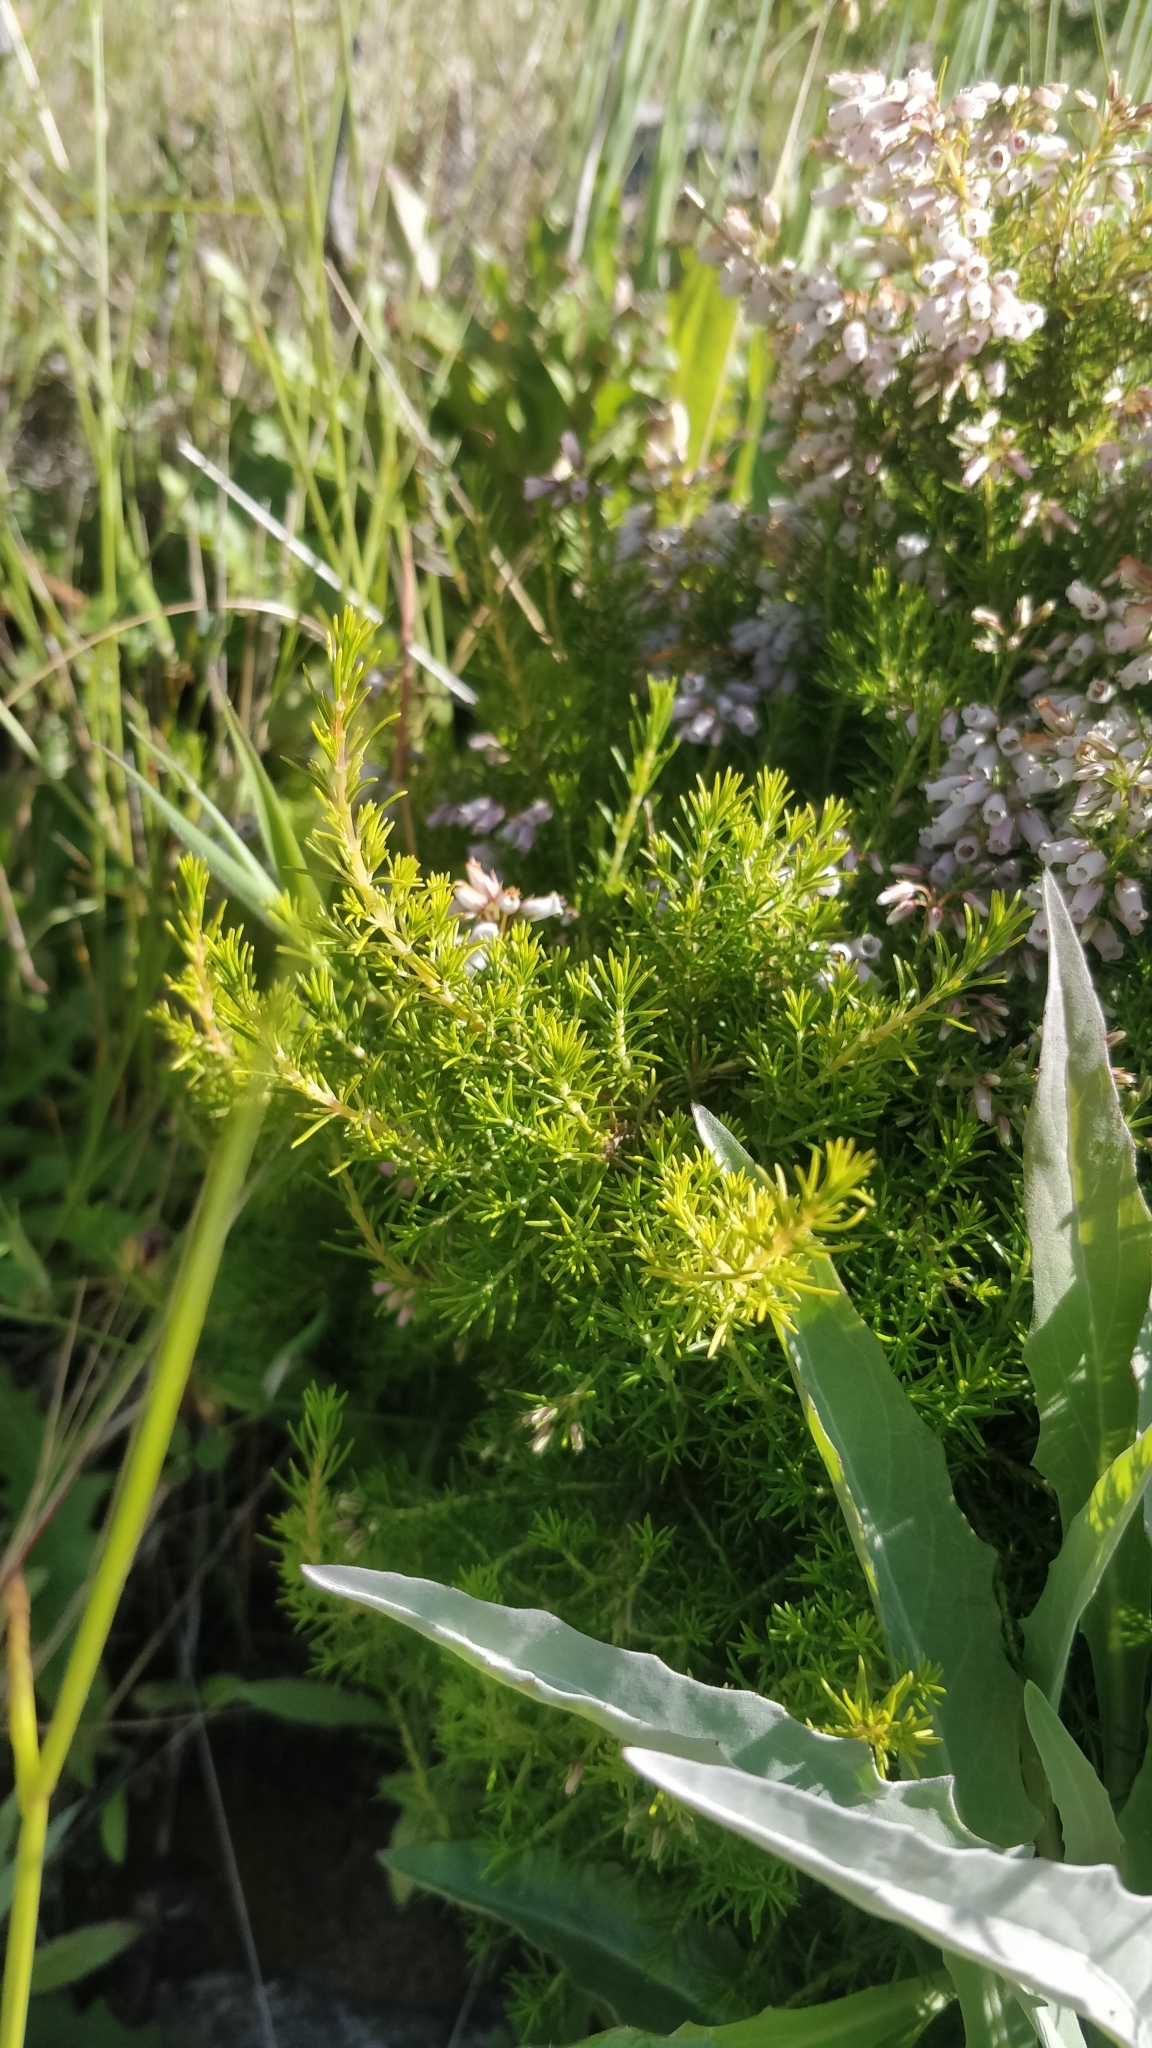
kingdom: Plantae
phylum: Tracheophyta
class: Magnoliopsida
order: Ericales
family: Ericaceae
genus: Erica
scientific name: Erica maderensis
